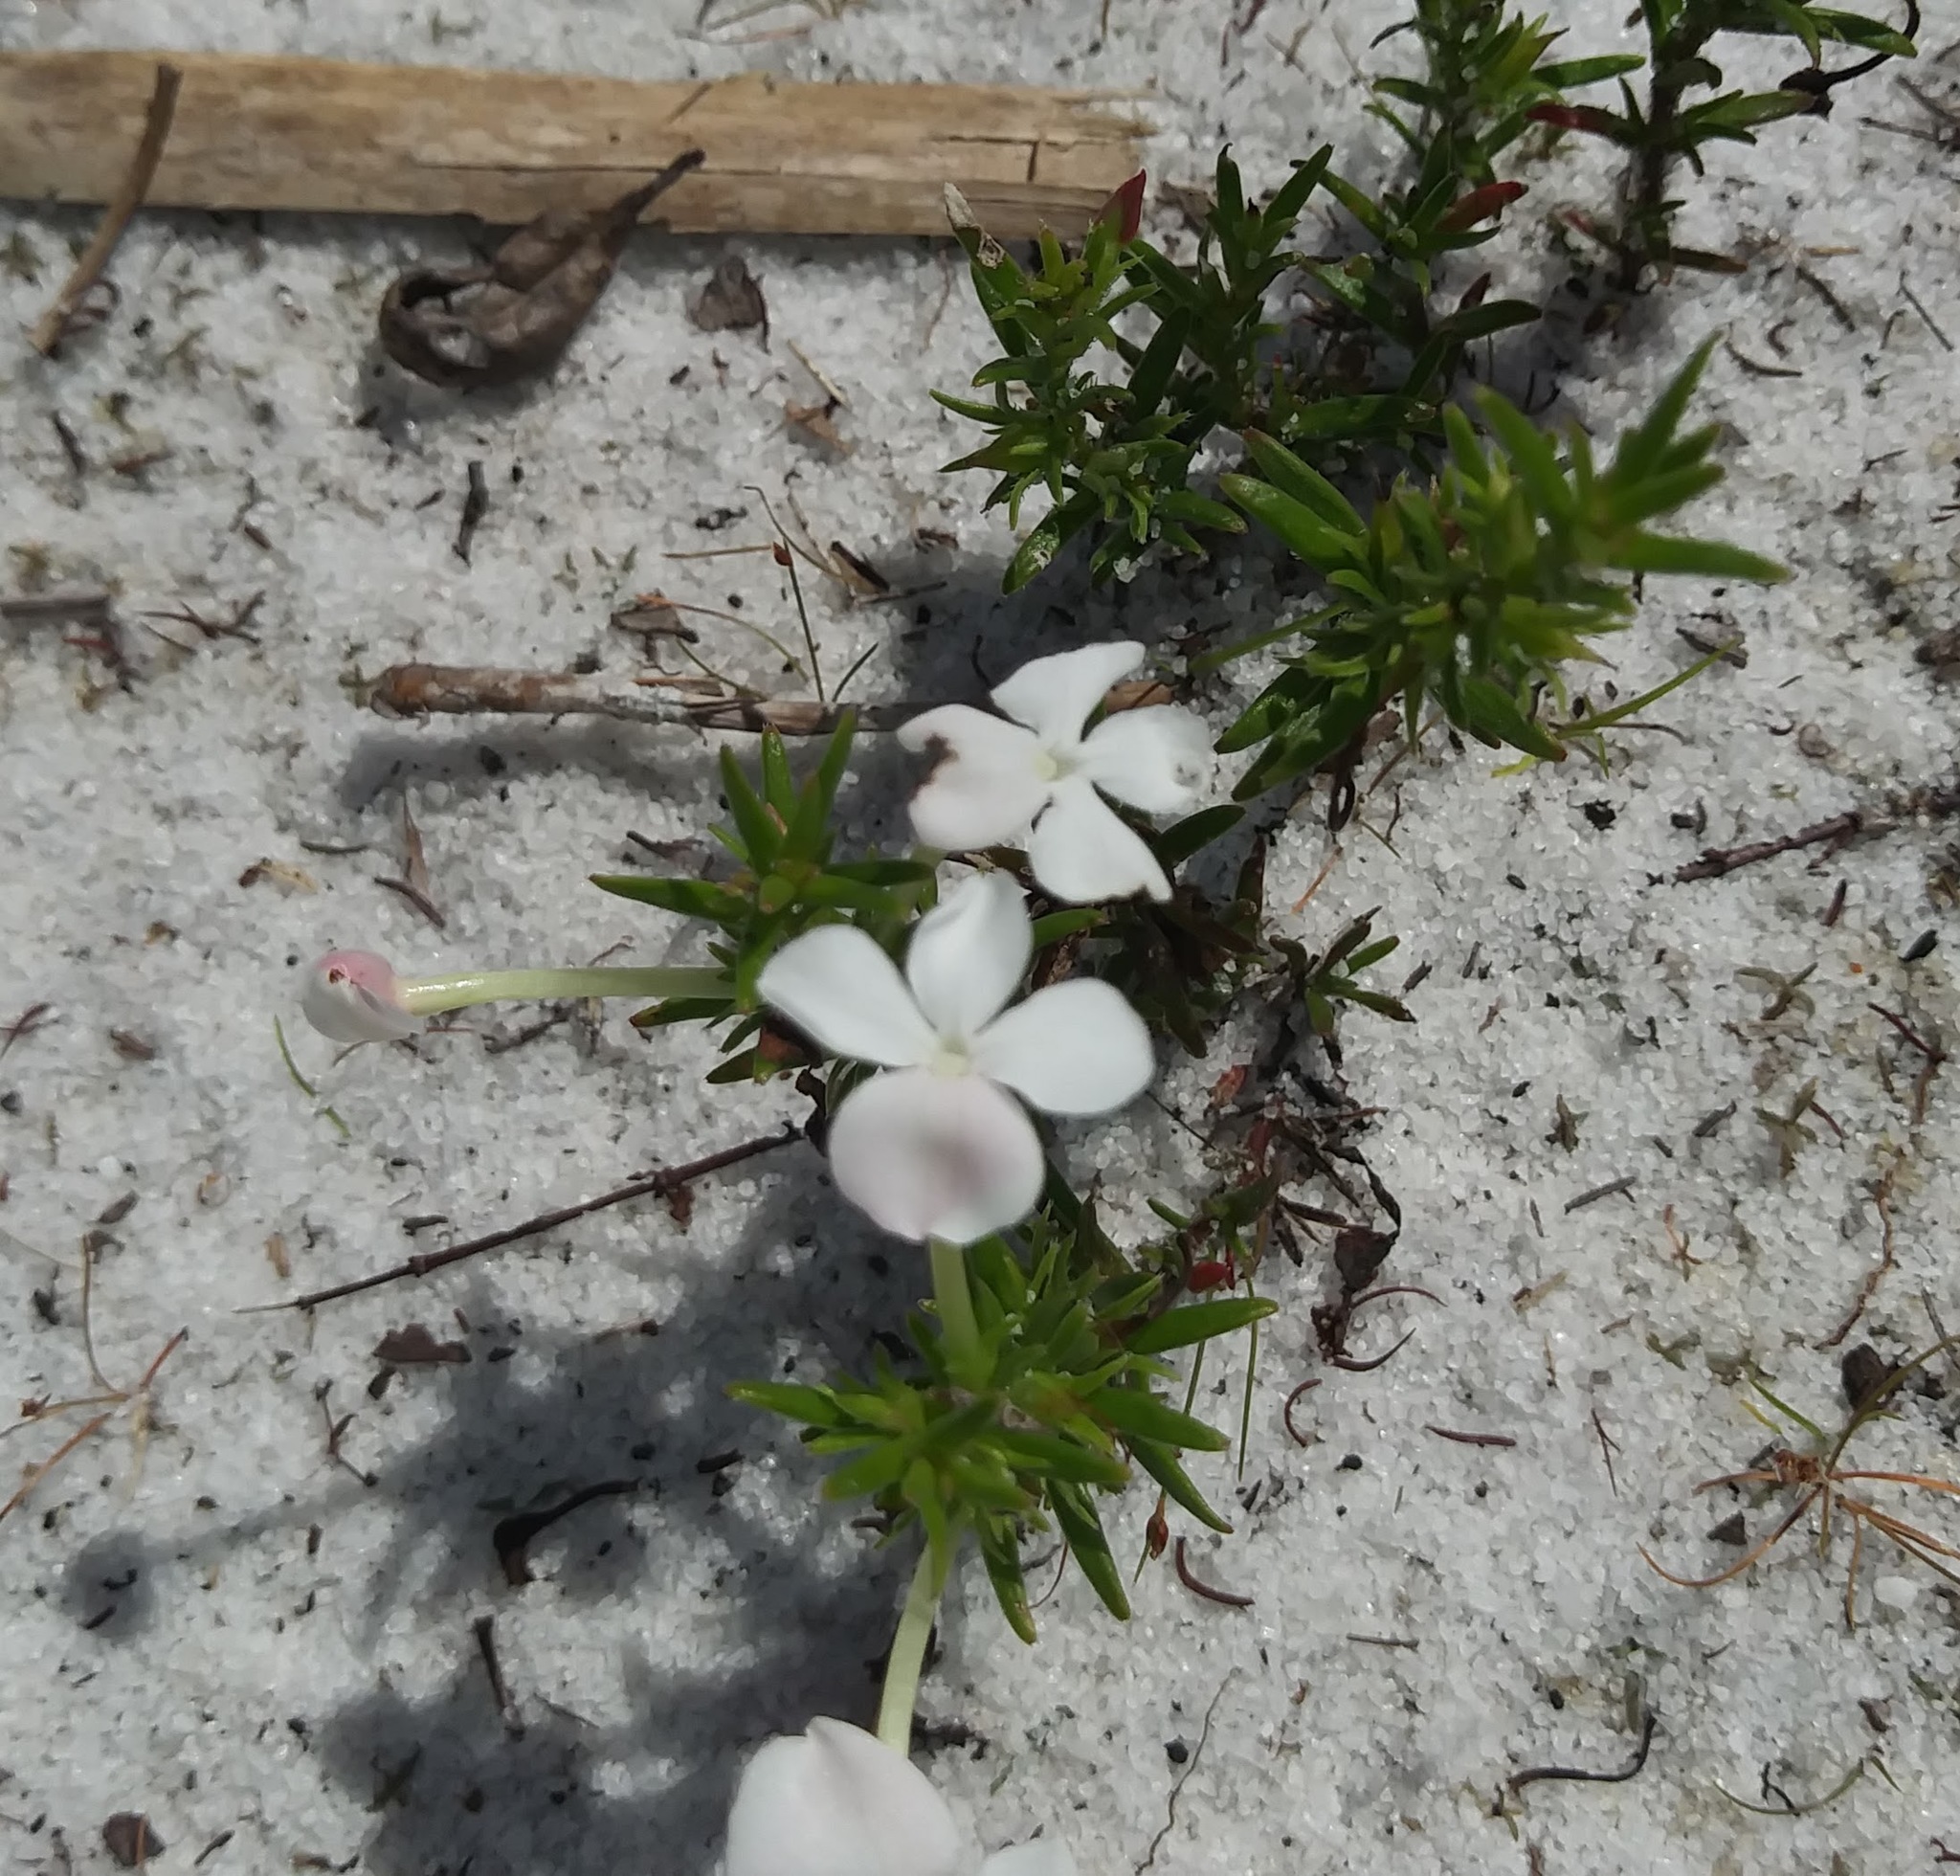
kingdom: Plantae
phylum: Tracheophyta
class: Magnoliopsida
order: Lamiales
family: Plantaginaceae
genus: Gratiola
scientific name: Gratiola hispida
